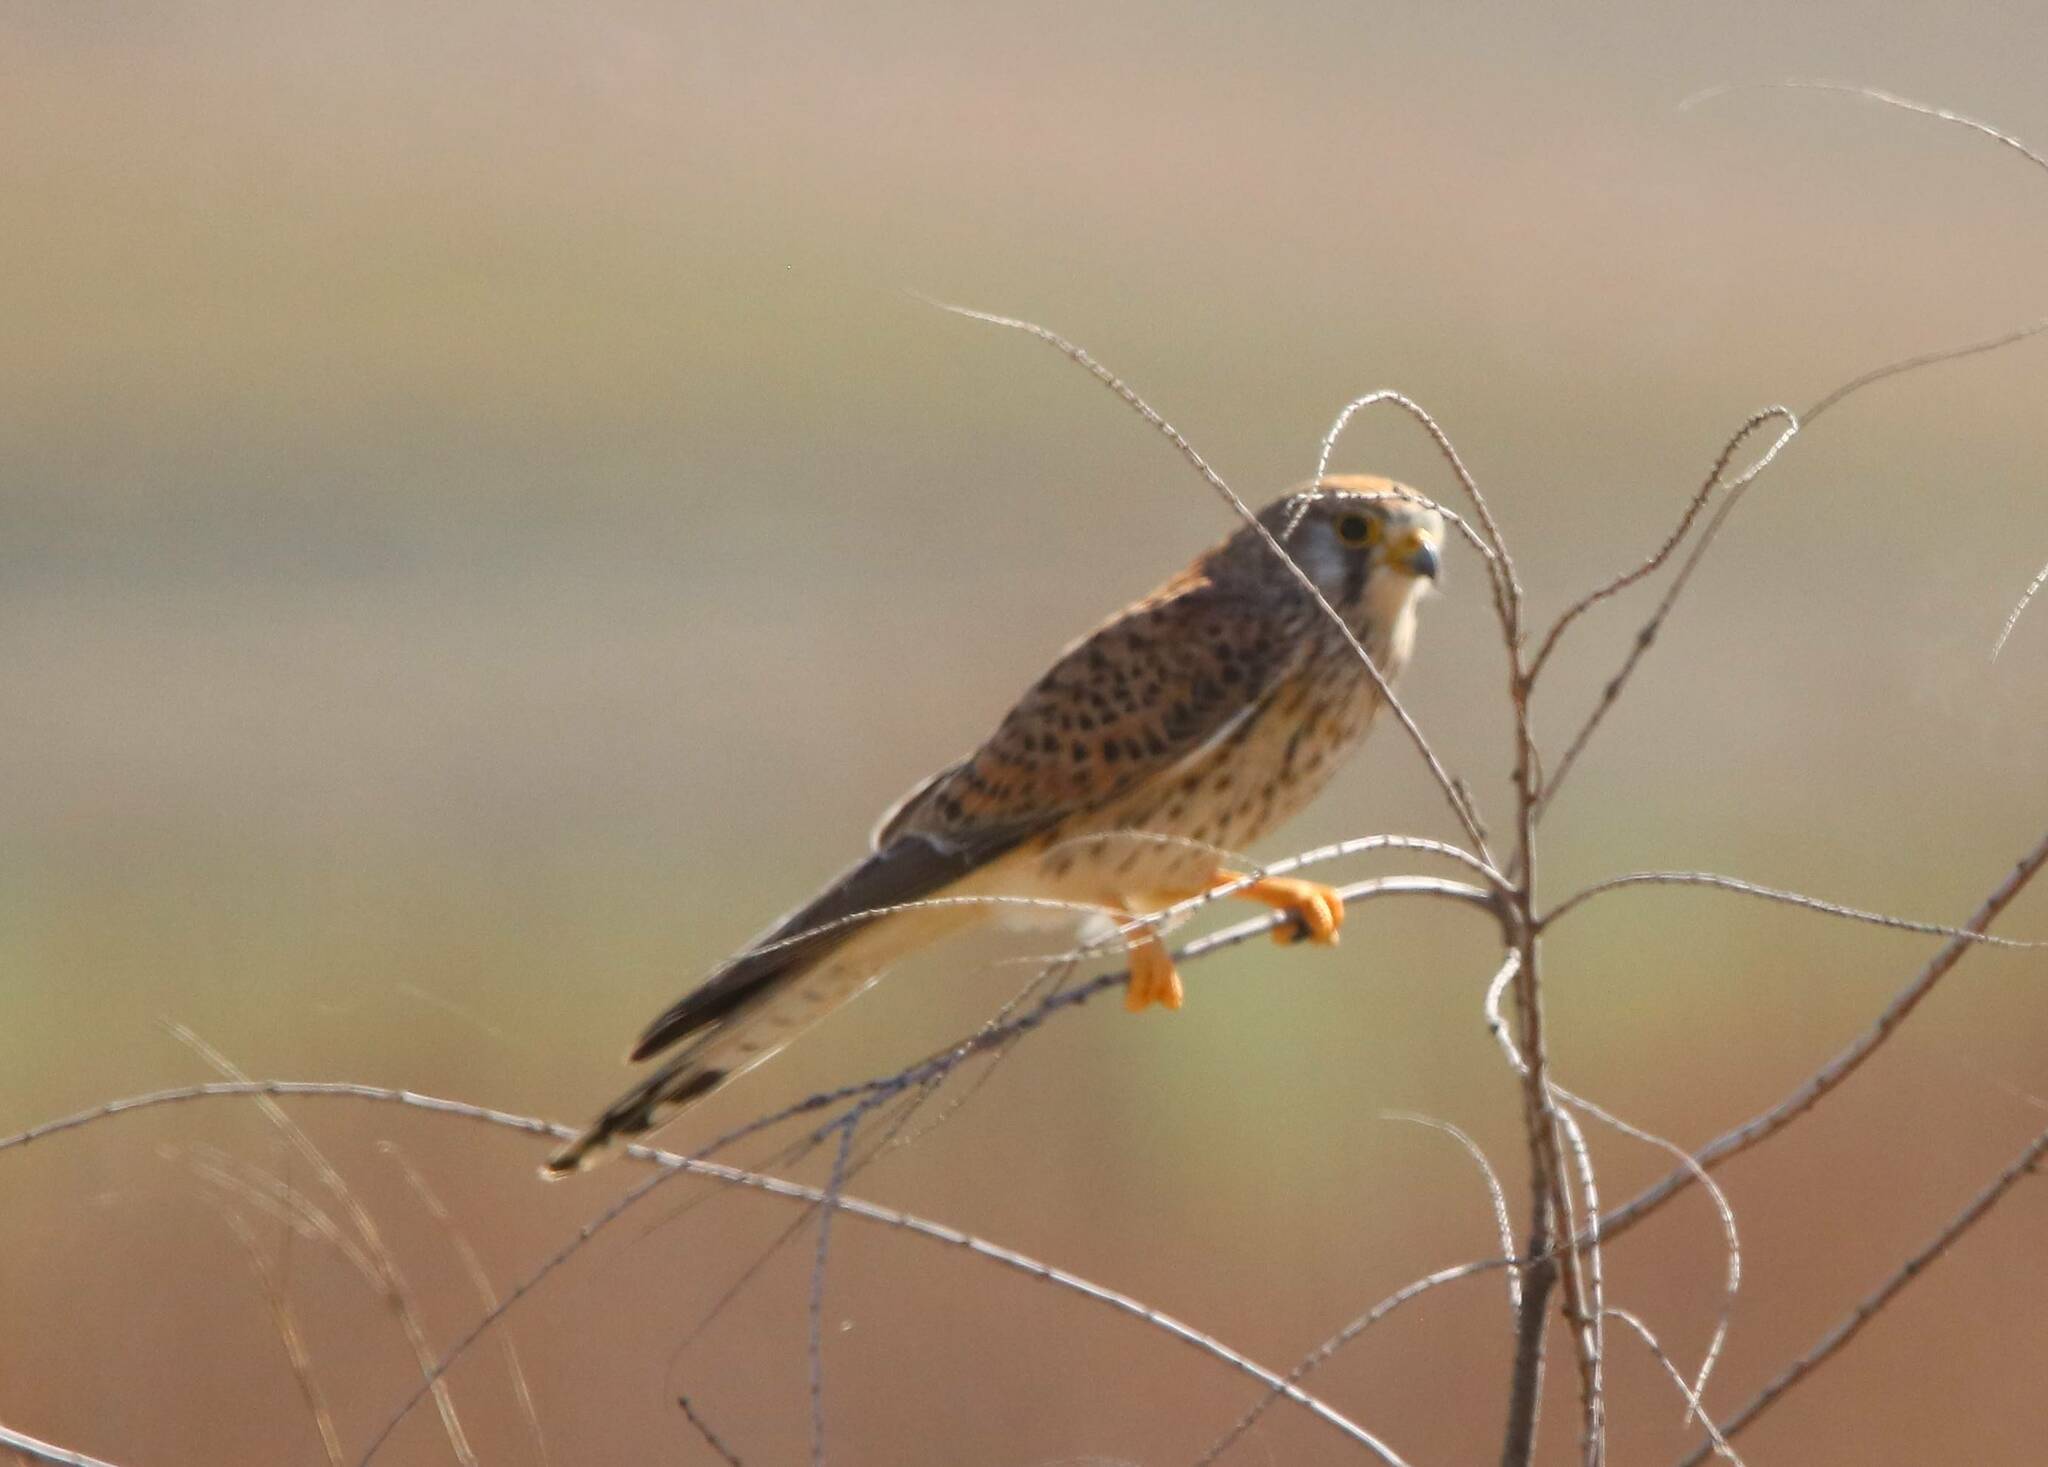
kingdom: Animalia
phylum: Chordata
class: Aves
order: Falconiformes
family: Falconidae
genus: Falco
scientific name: Falco tinnunculus
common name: Common kestrel
